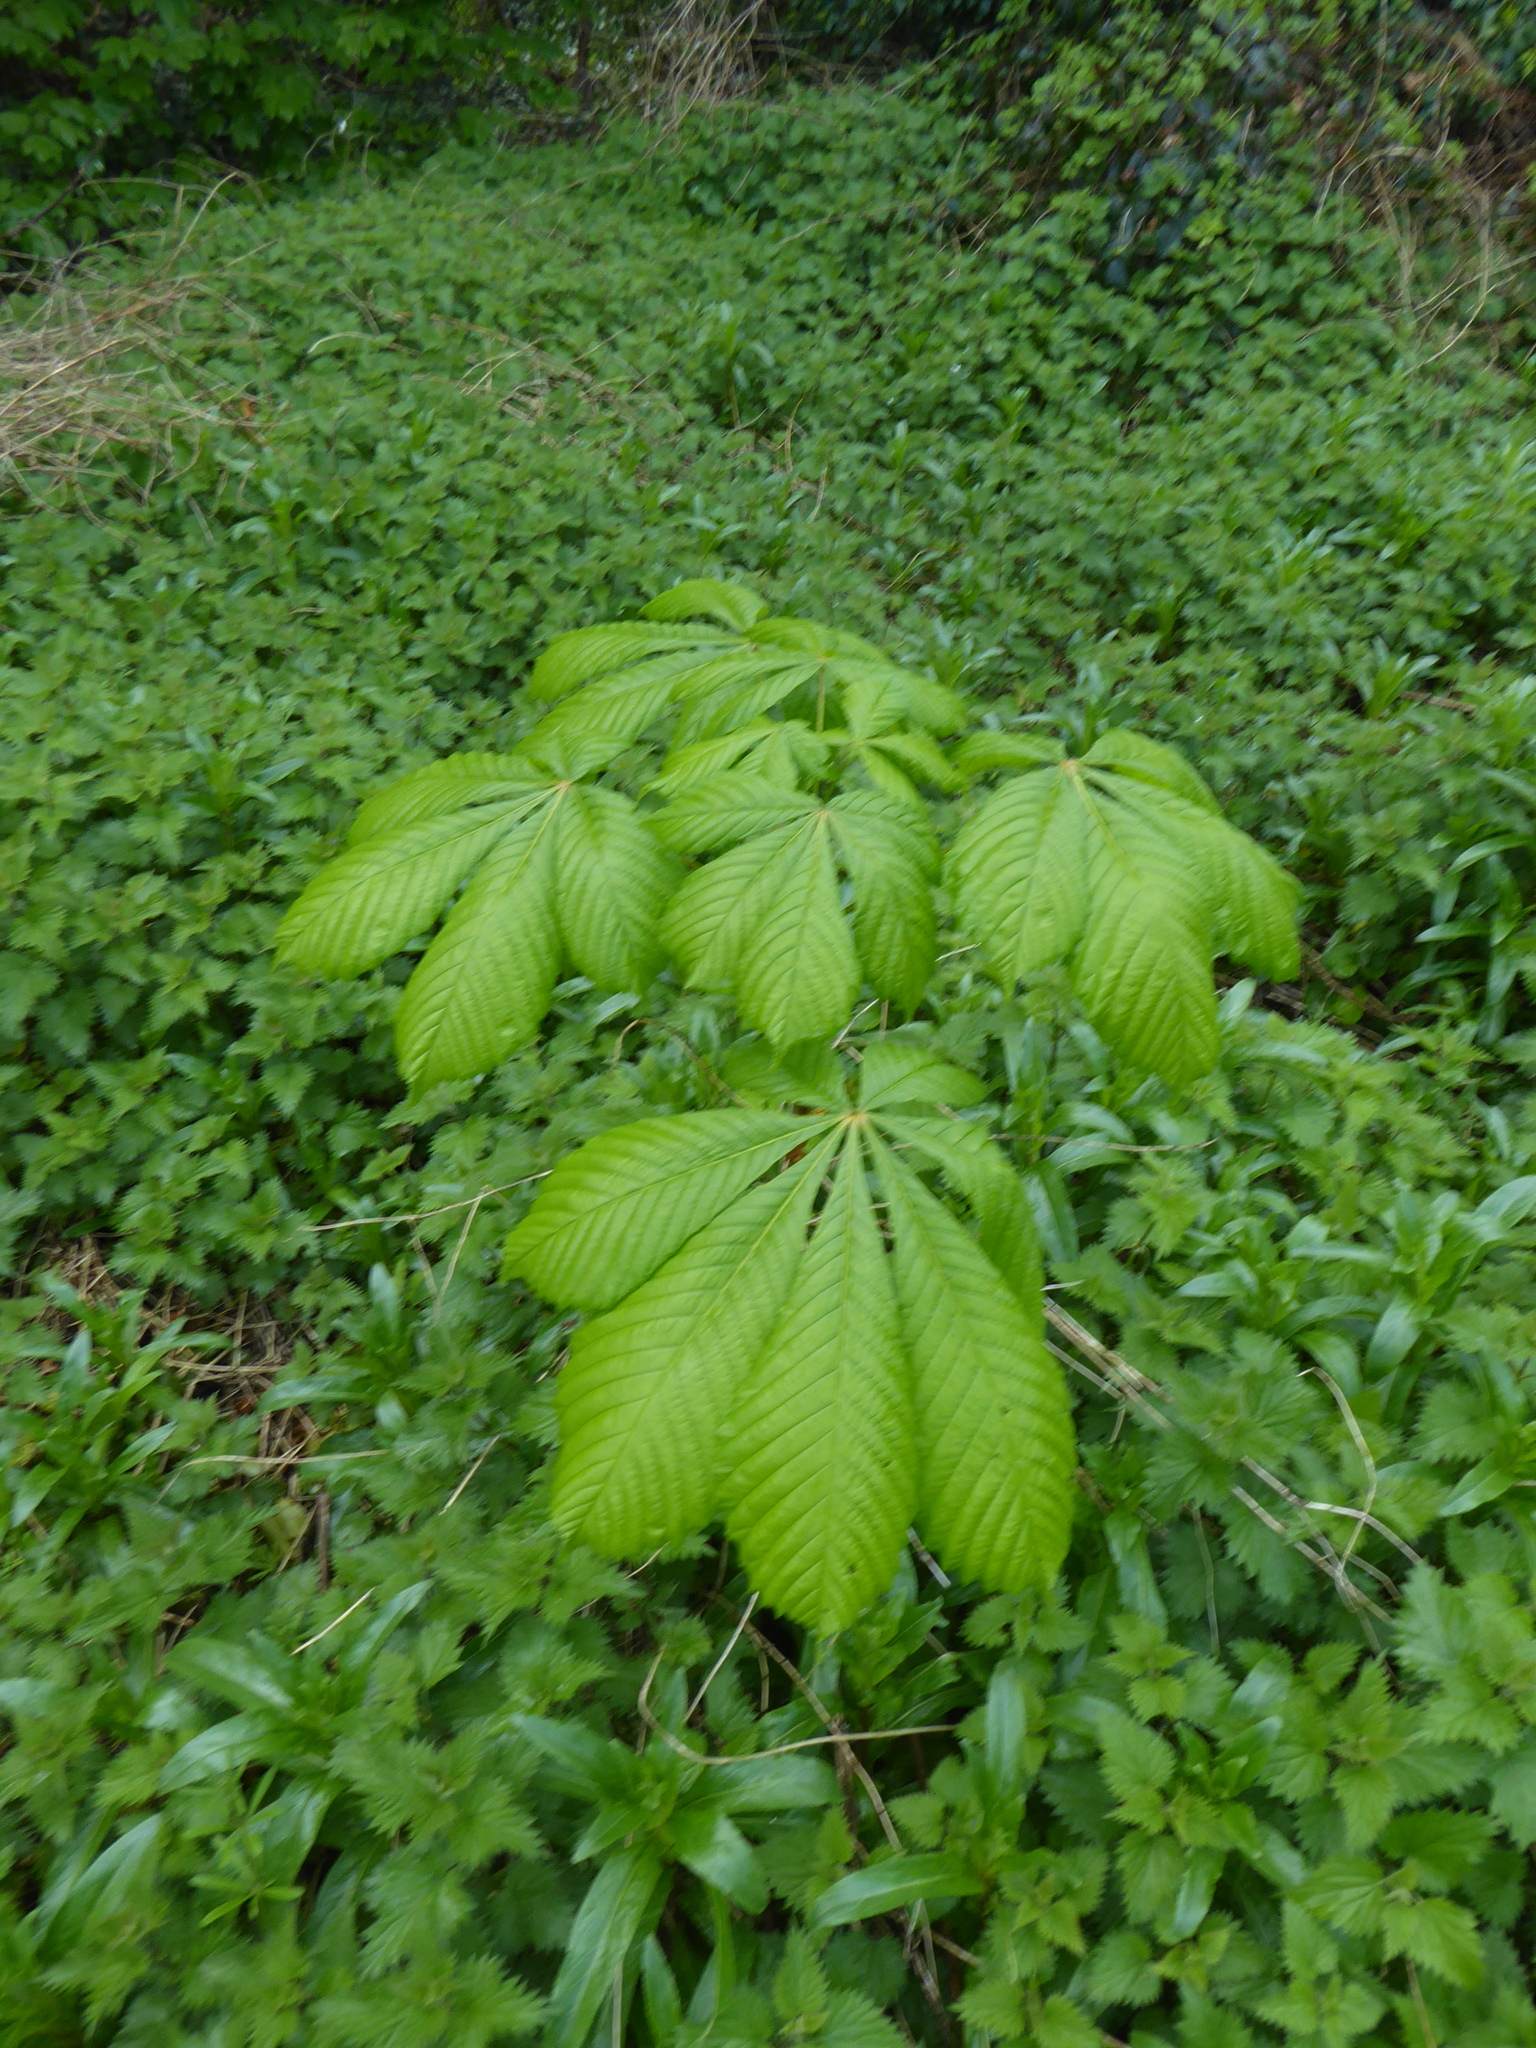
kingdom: Plantae
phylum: Tracheophyta
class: Magnoliopsida
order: Sapindales
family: Sapindaceae
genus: Aesculus
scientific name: Aesculus hippocastanum
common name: Horse-chestnut
